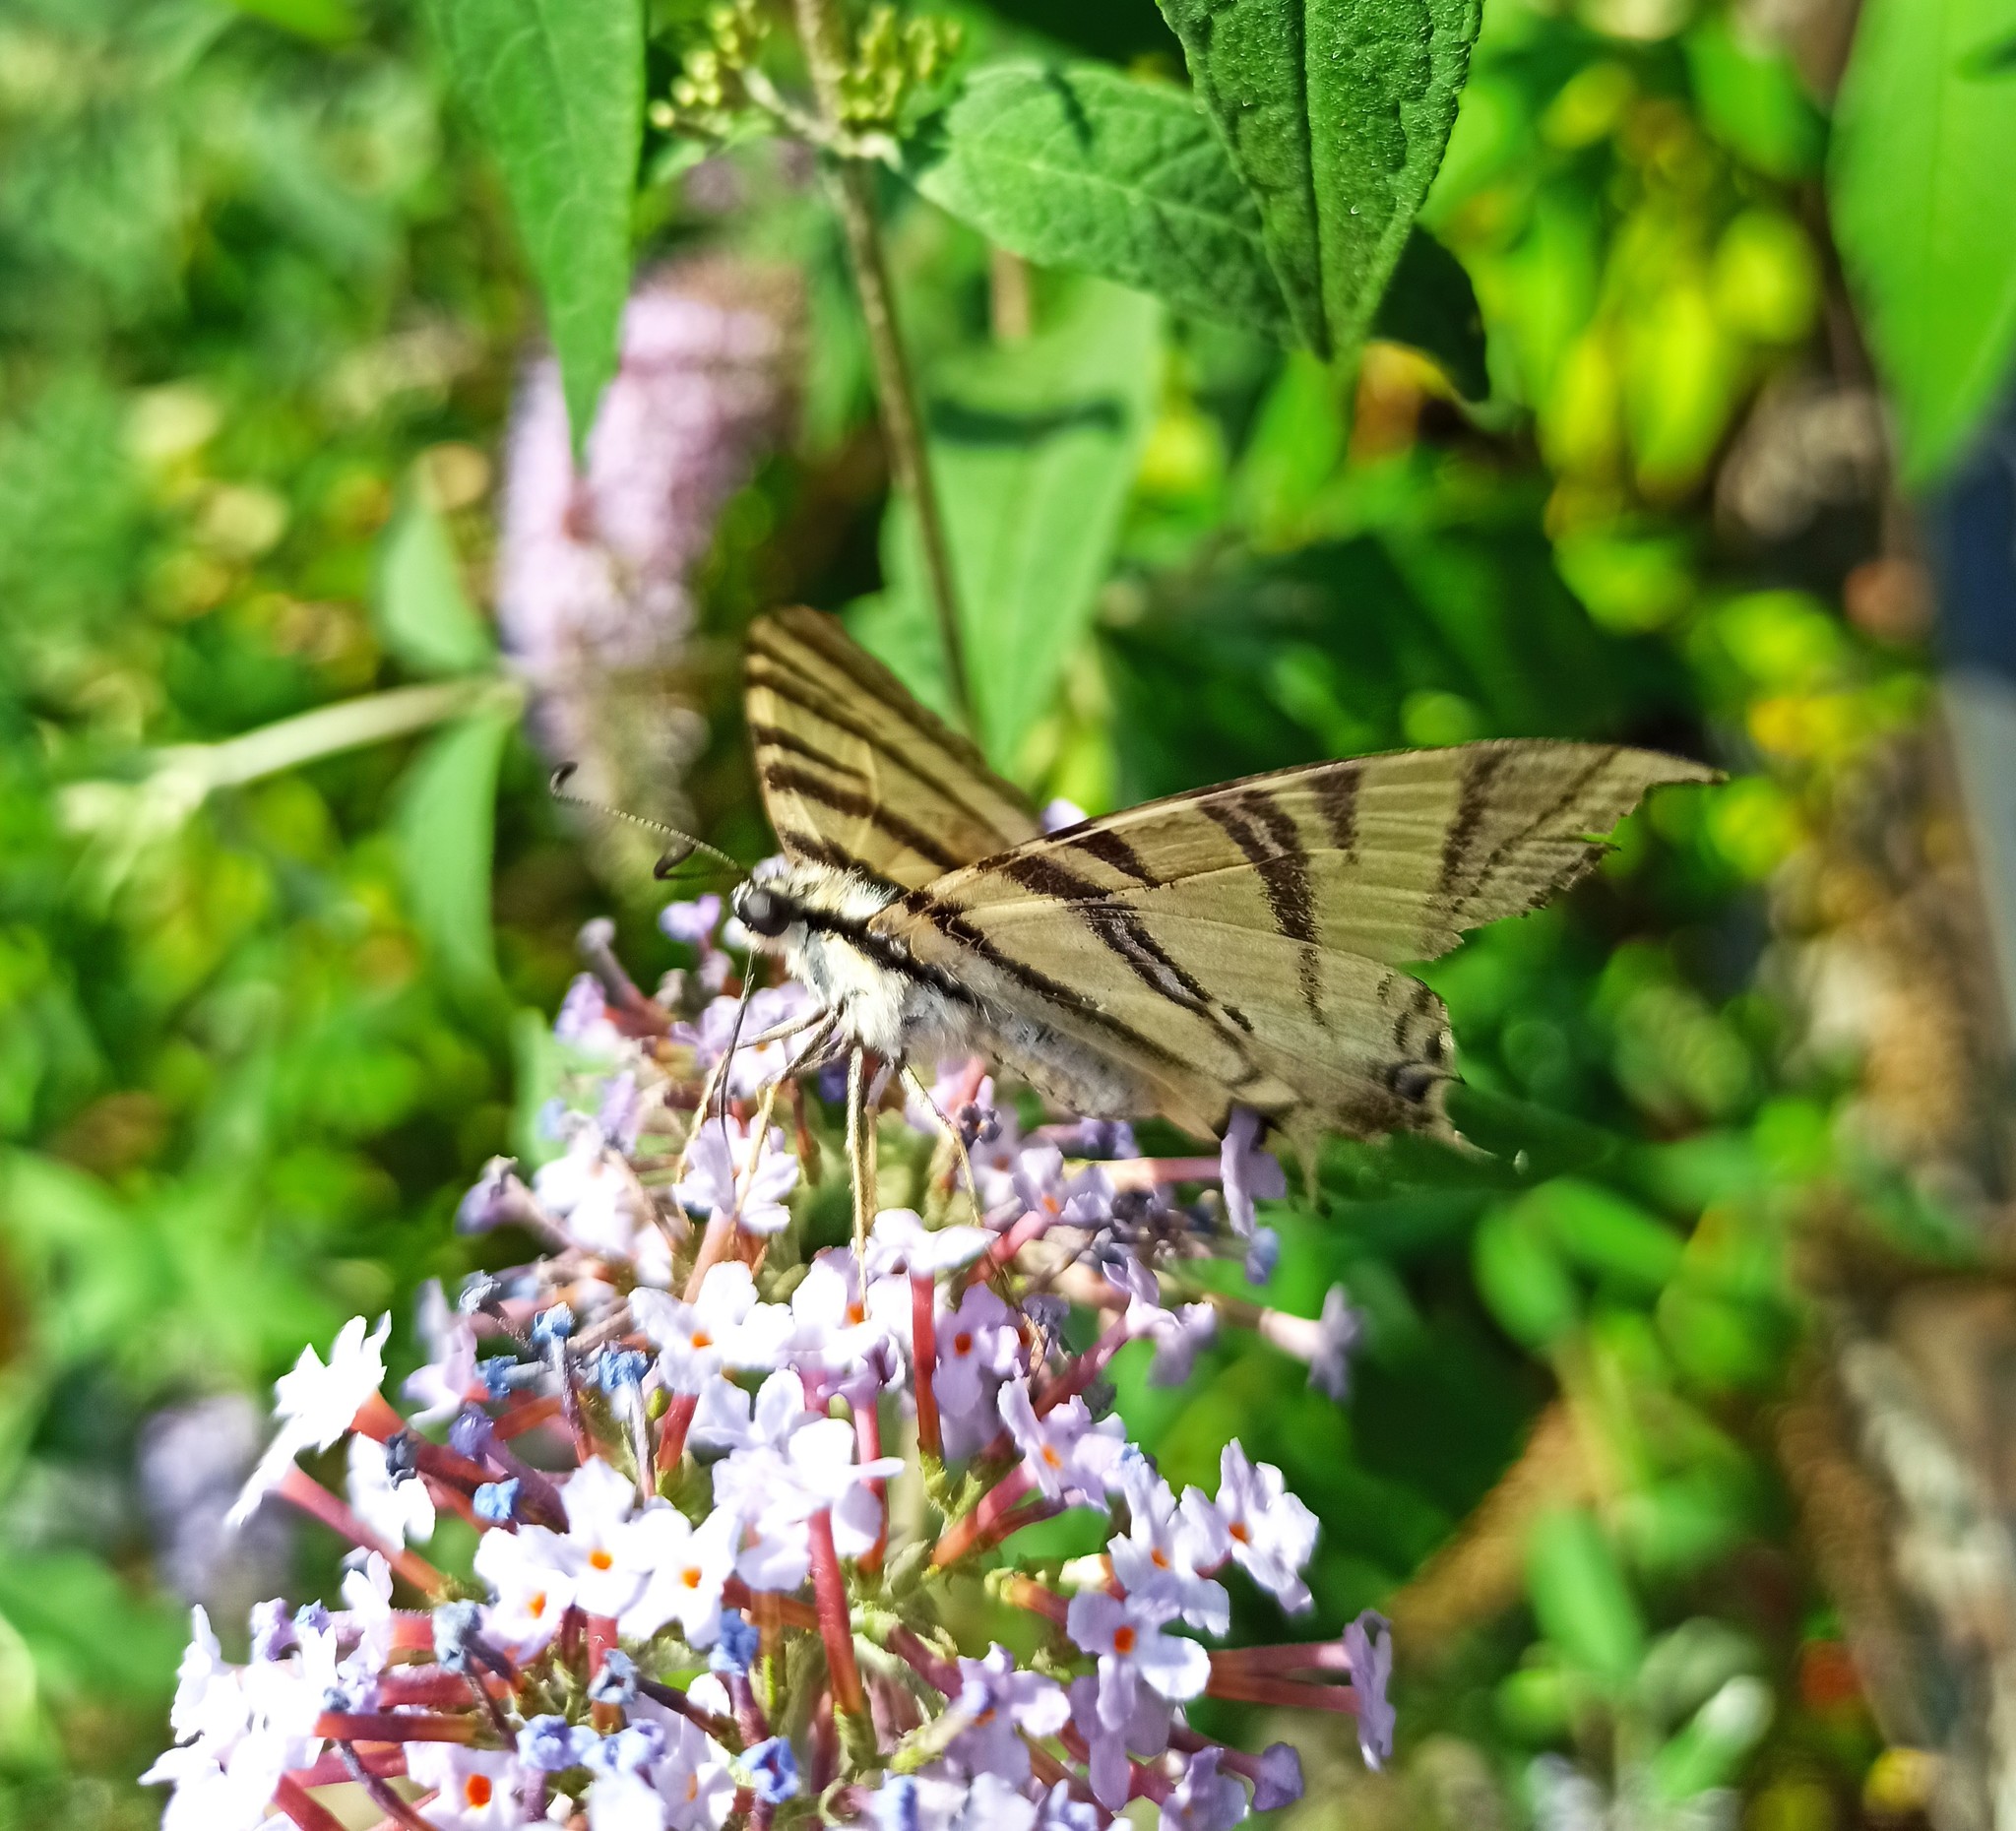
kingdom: Animalia
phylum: Arthropoda
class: Insecta
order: Lepidoptera
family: Papilionidae
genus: Iphiclides
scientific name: Iphiclides podalirius
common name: Scarce swallowtail
